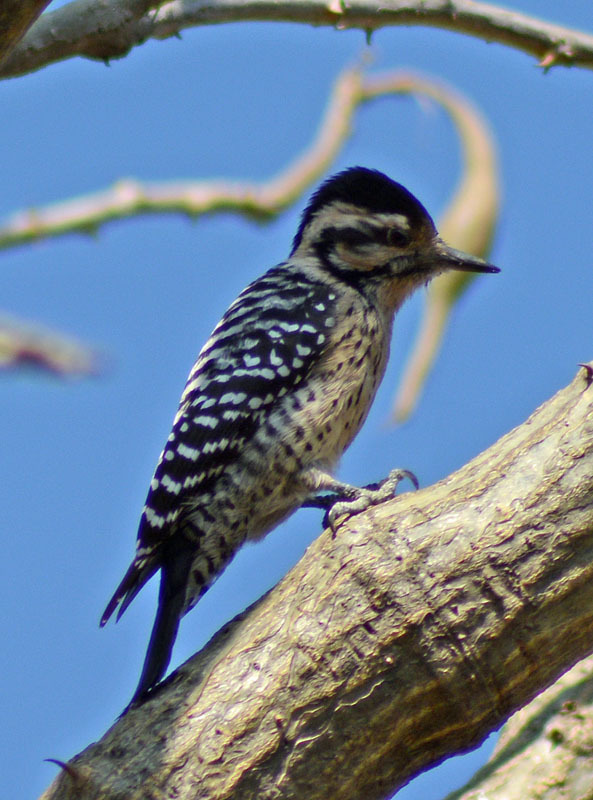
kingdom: Animalia
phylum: Chordata
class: Aves
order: Piciformes
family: Picidae
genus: Dryobates
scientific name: Dryobates scalaris
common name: Ladder-backed woodpecker
